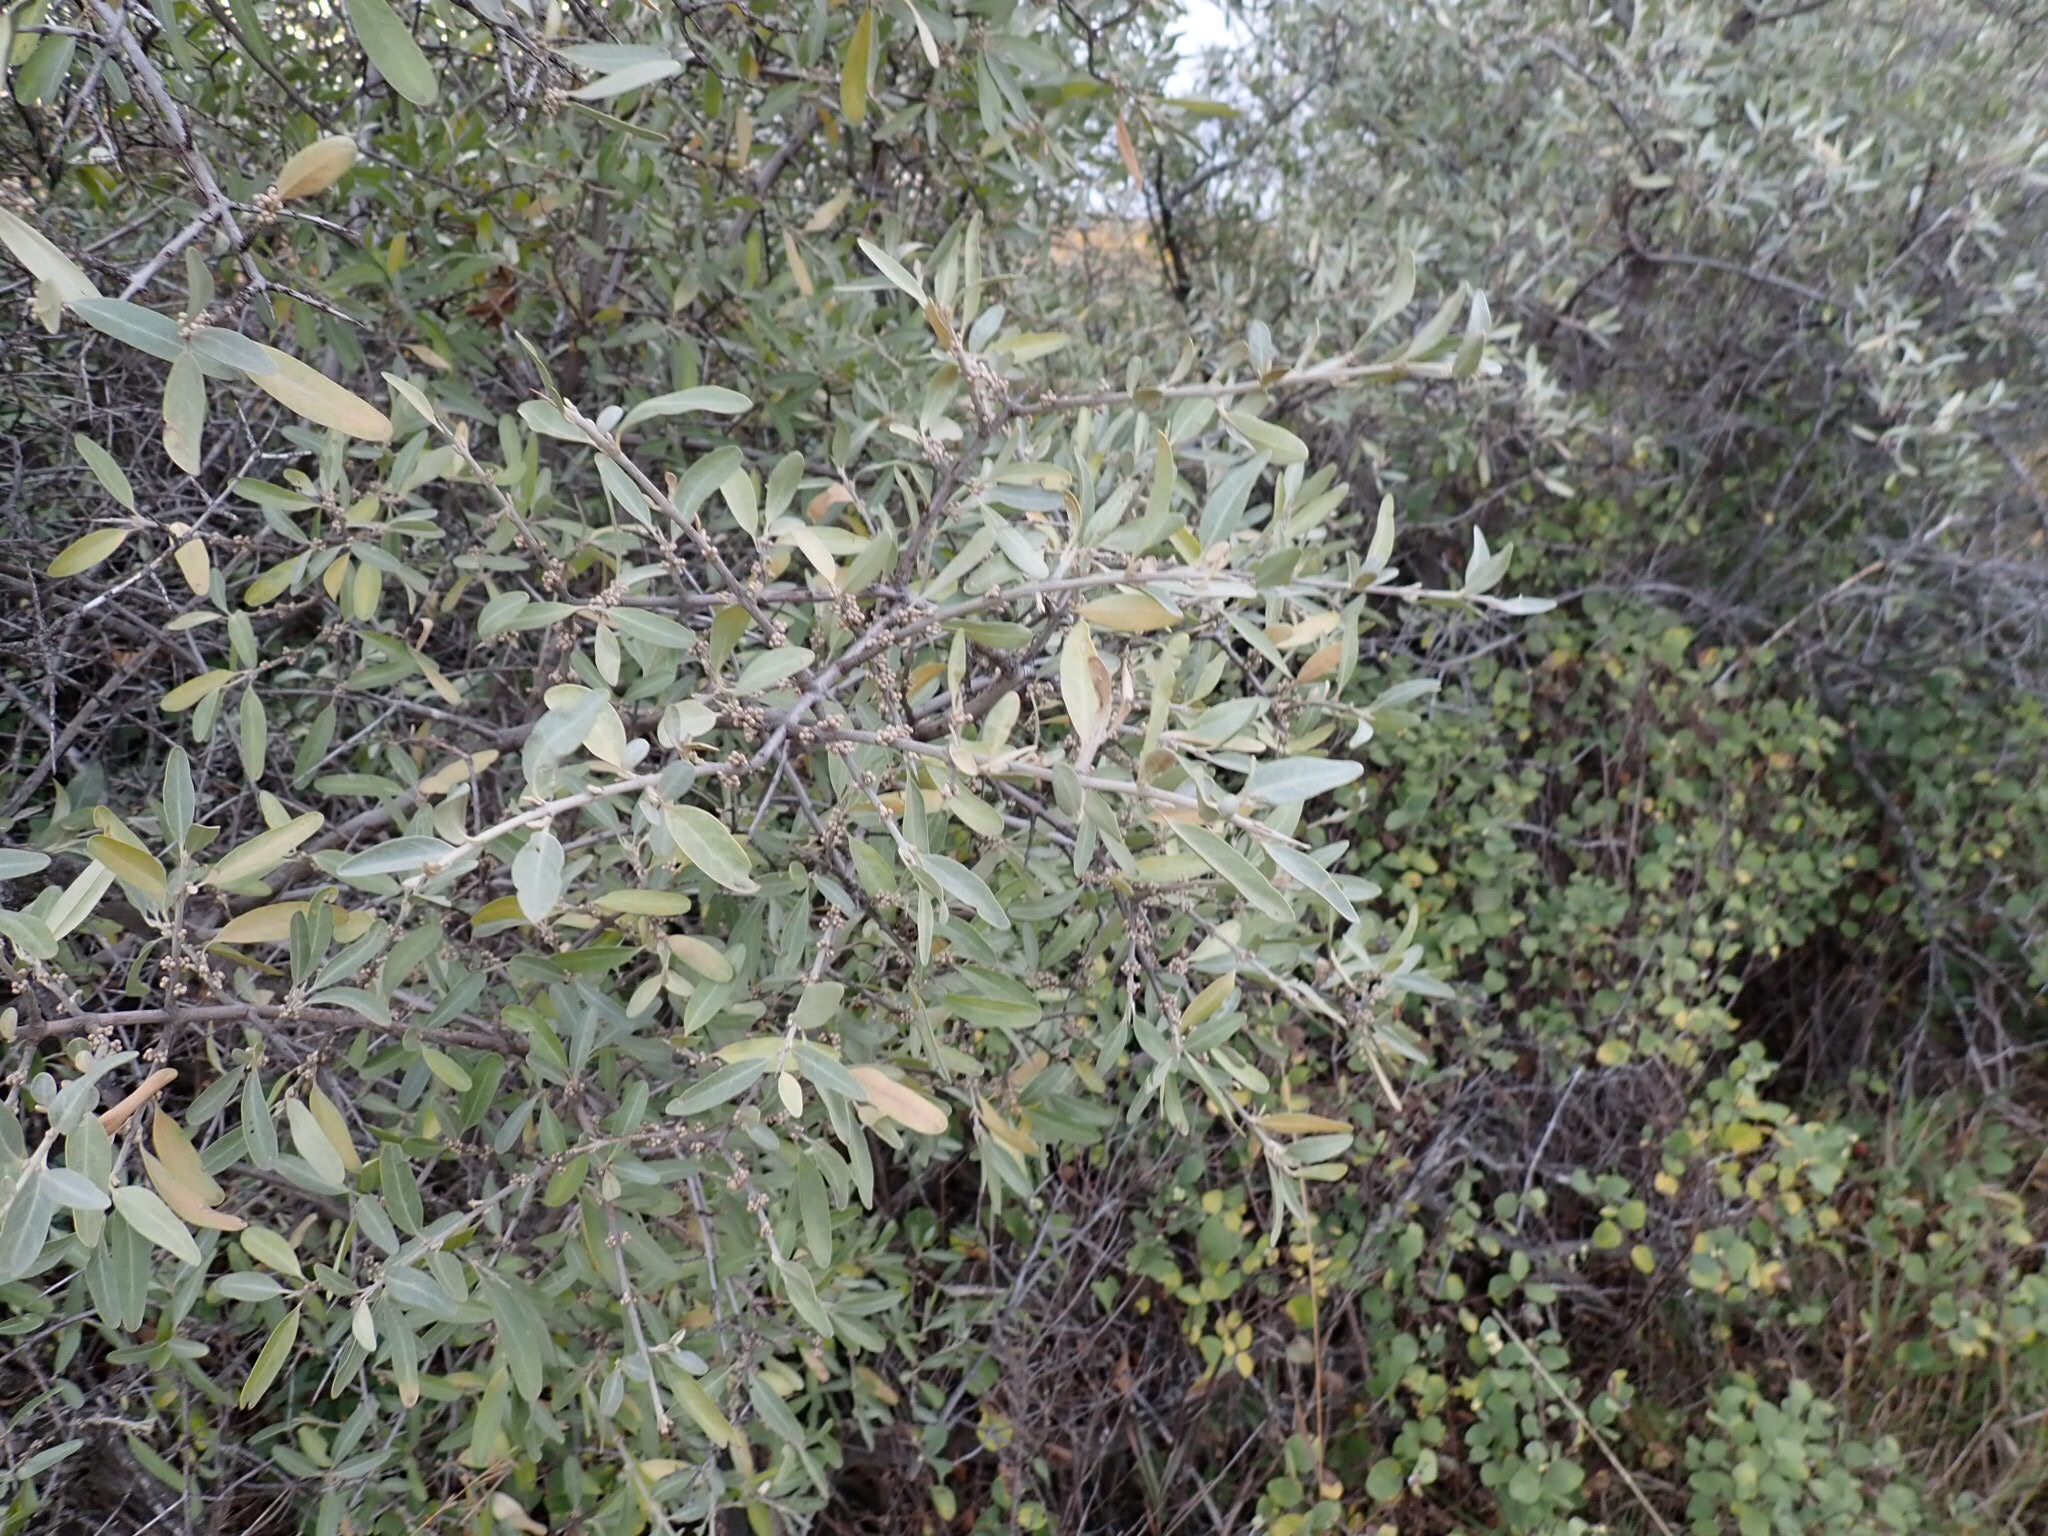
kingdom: Plantae
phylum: Tracheophyta
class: Magnoliopsida
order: Rosales
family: Elaeagnaceae
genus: Shepherdia
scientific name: Shepherdia argentea
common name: Silver buffaloberry
